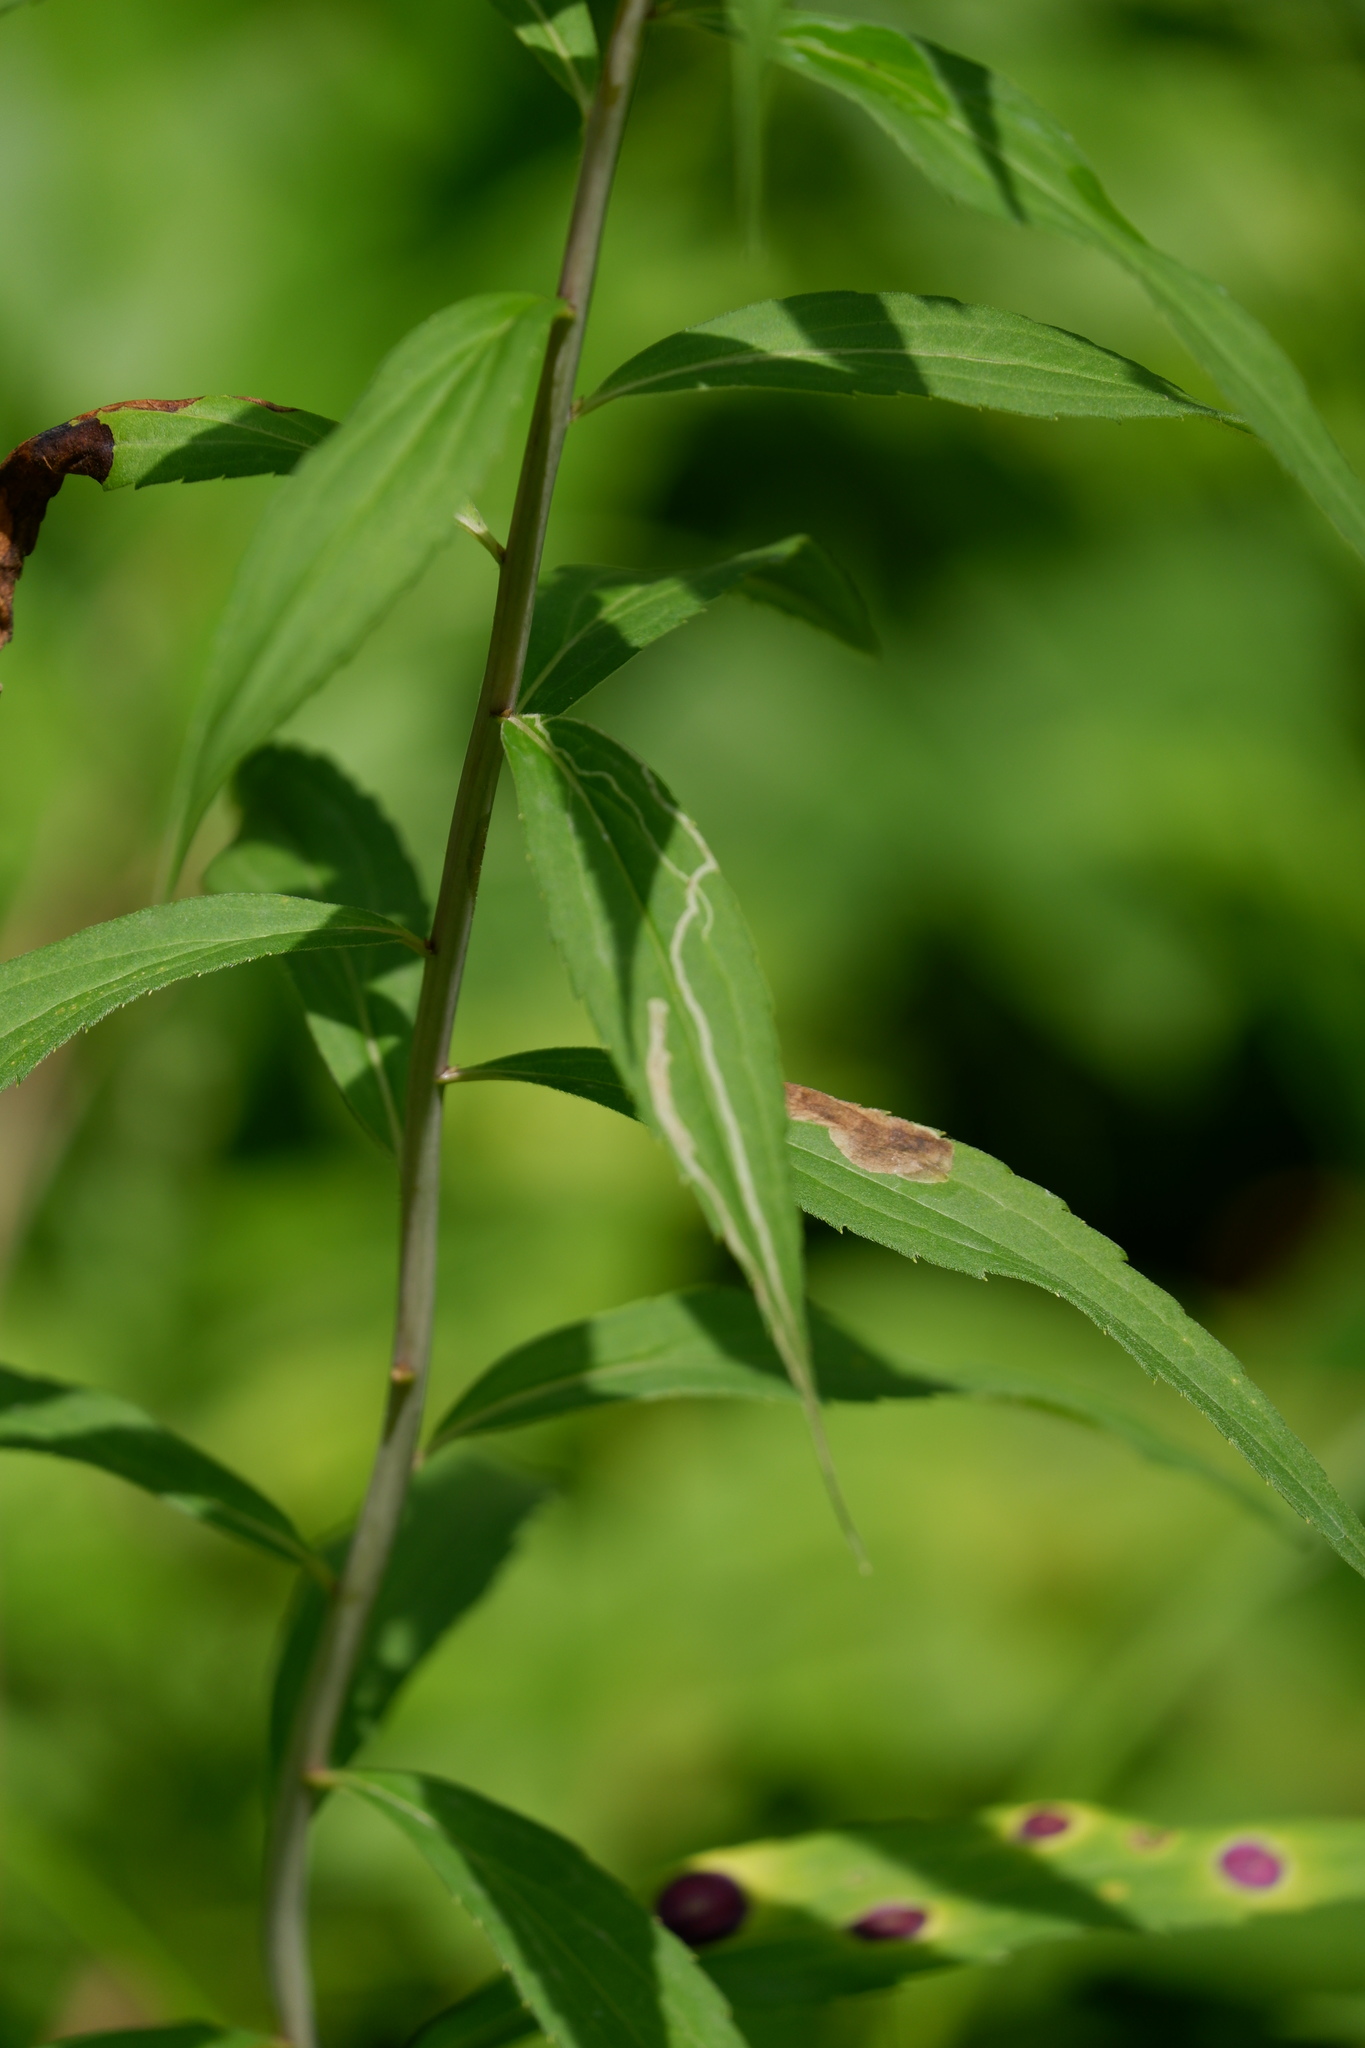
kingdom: Animalia
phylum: Arthropoda
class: Insecta
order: Diptera
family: Agromyzidae
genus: Nemorimyza
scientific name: Nemorimyza posticata
